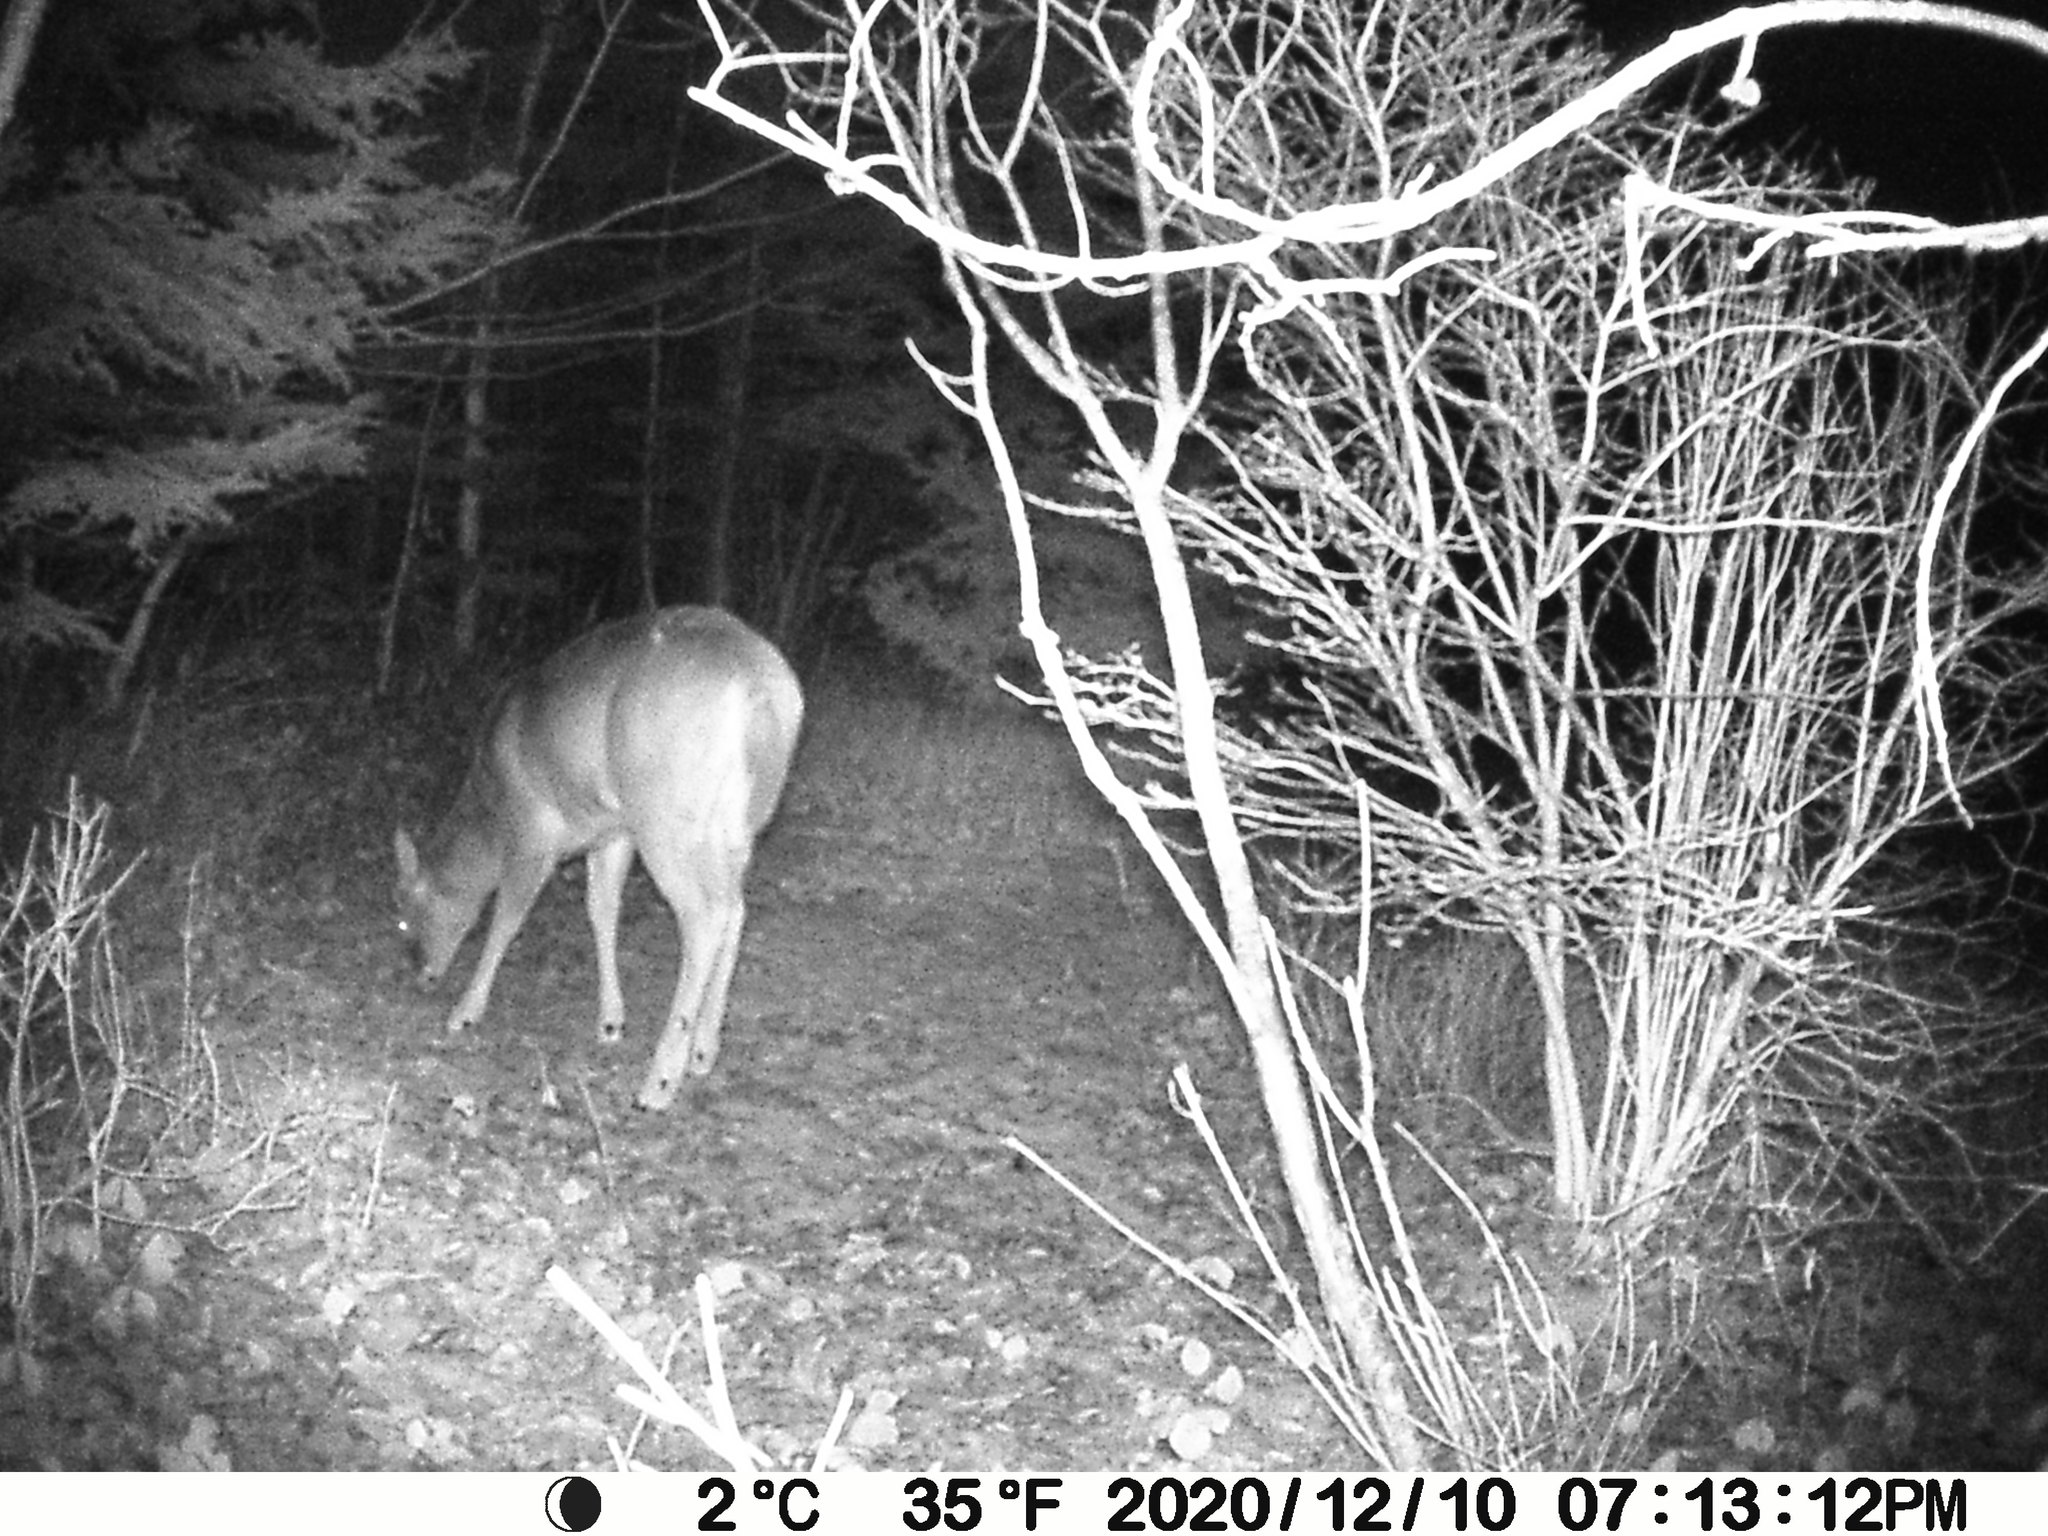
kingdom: Animalia
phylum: Chordata
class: Mammalia
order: Artiodactyla
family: Cervidae
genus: Odocoileus
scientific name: Odocoileus virginianus
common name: White-tailed deer
